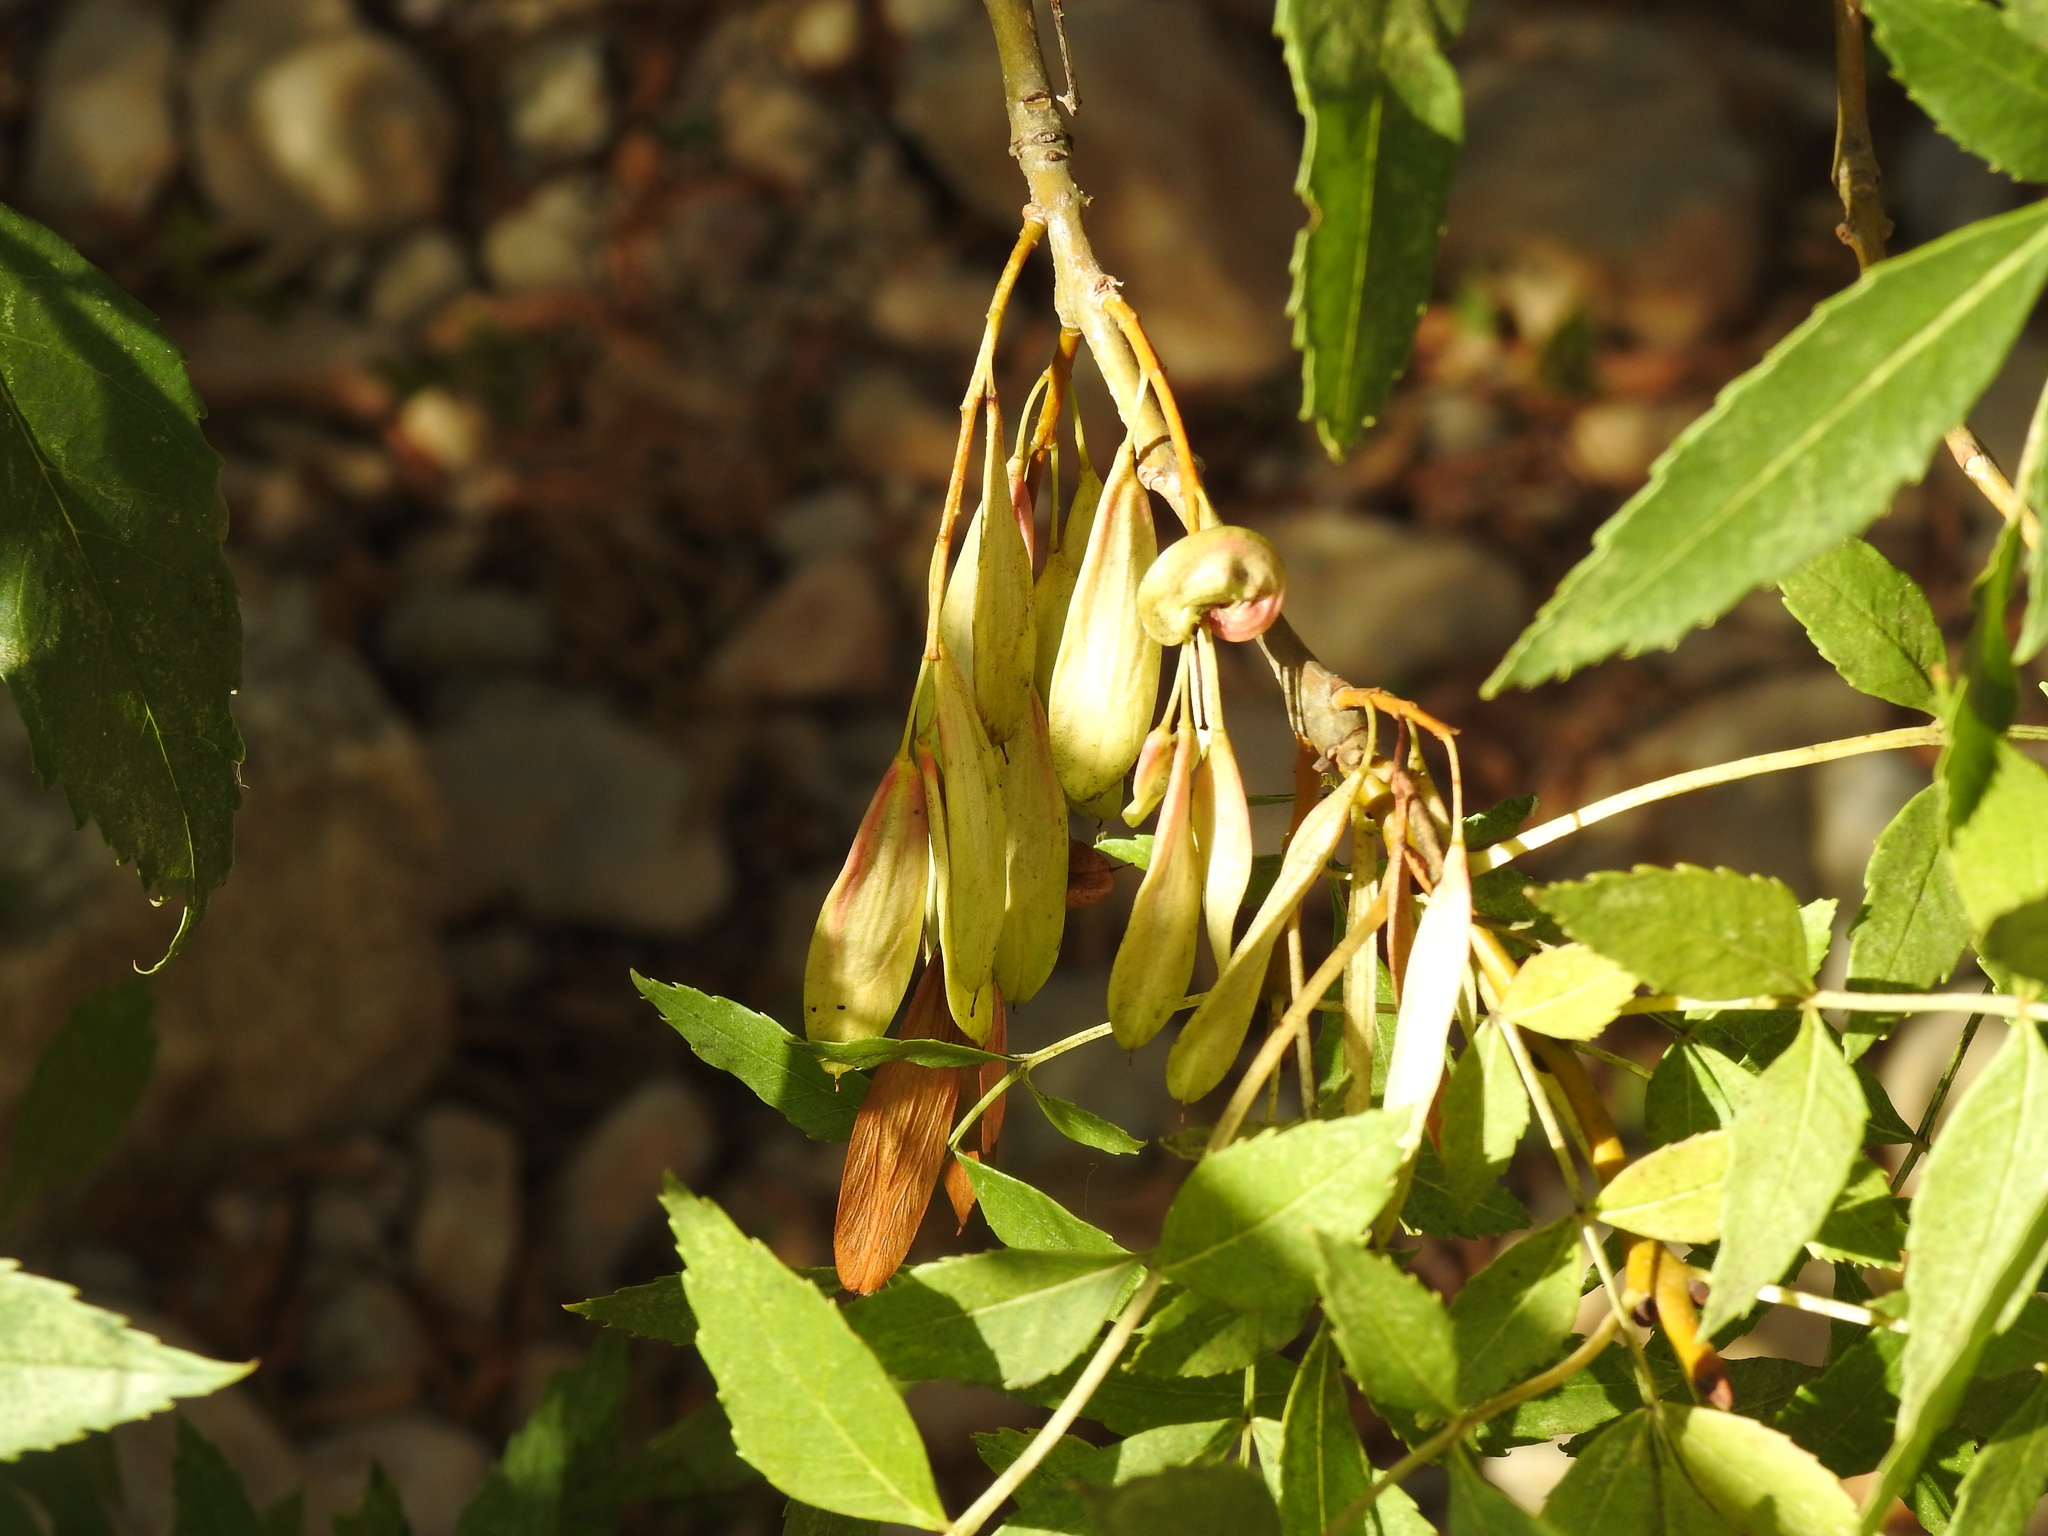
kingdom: Plantae
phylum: Tracheophyta
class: Magnoliopsida
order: Lamiales
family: Oleaceae
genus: Fraxinus
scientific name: Fraxinus angustifolia
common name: Narrow-leafed ash
